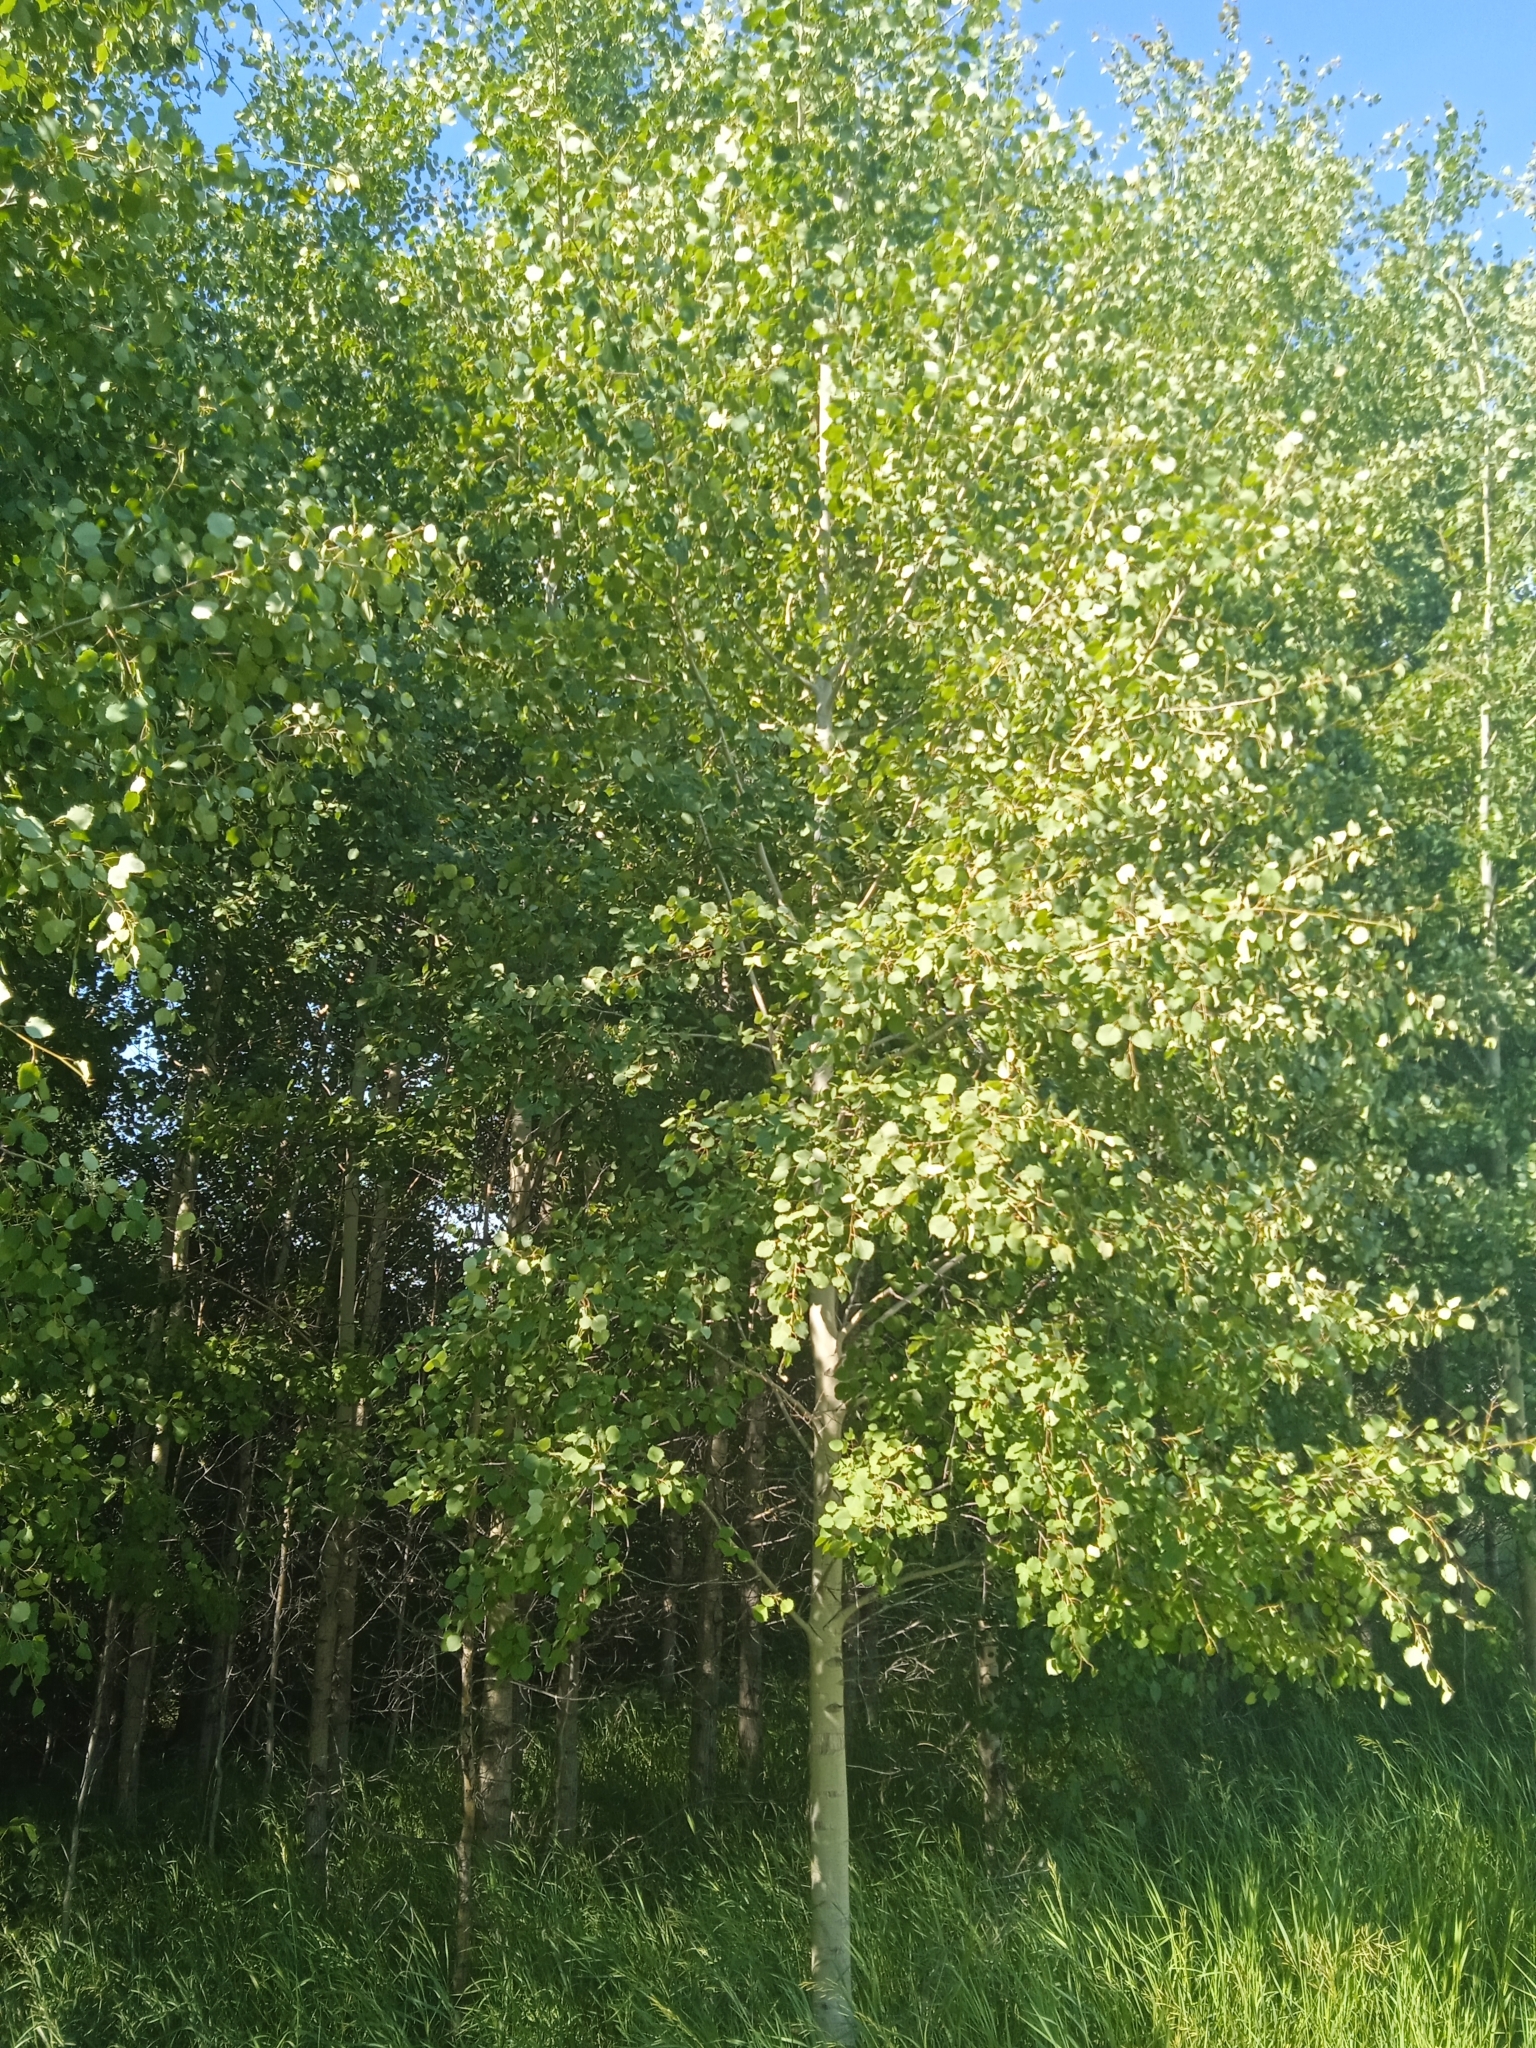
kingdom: Plantae
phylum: Tracheophyta
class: Magnoliopsida
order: Malpighiales
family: Salicaceae
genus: Populus
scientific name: Populus tremula
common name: European aspen
